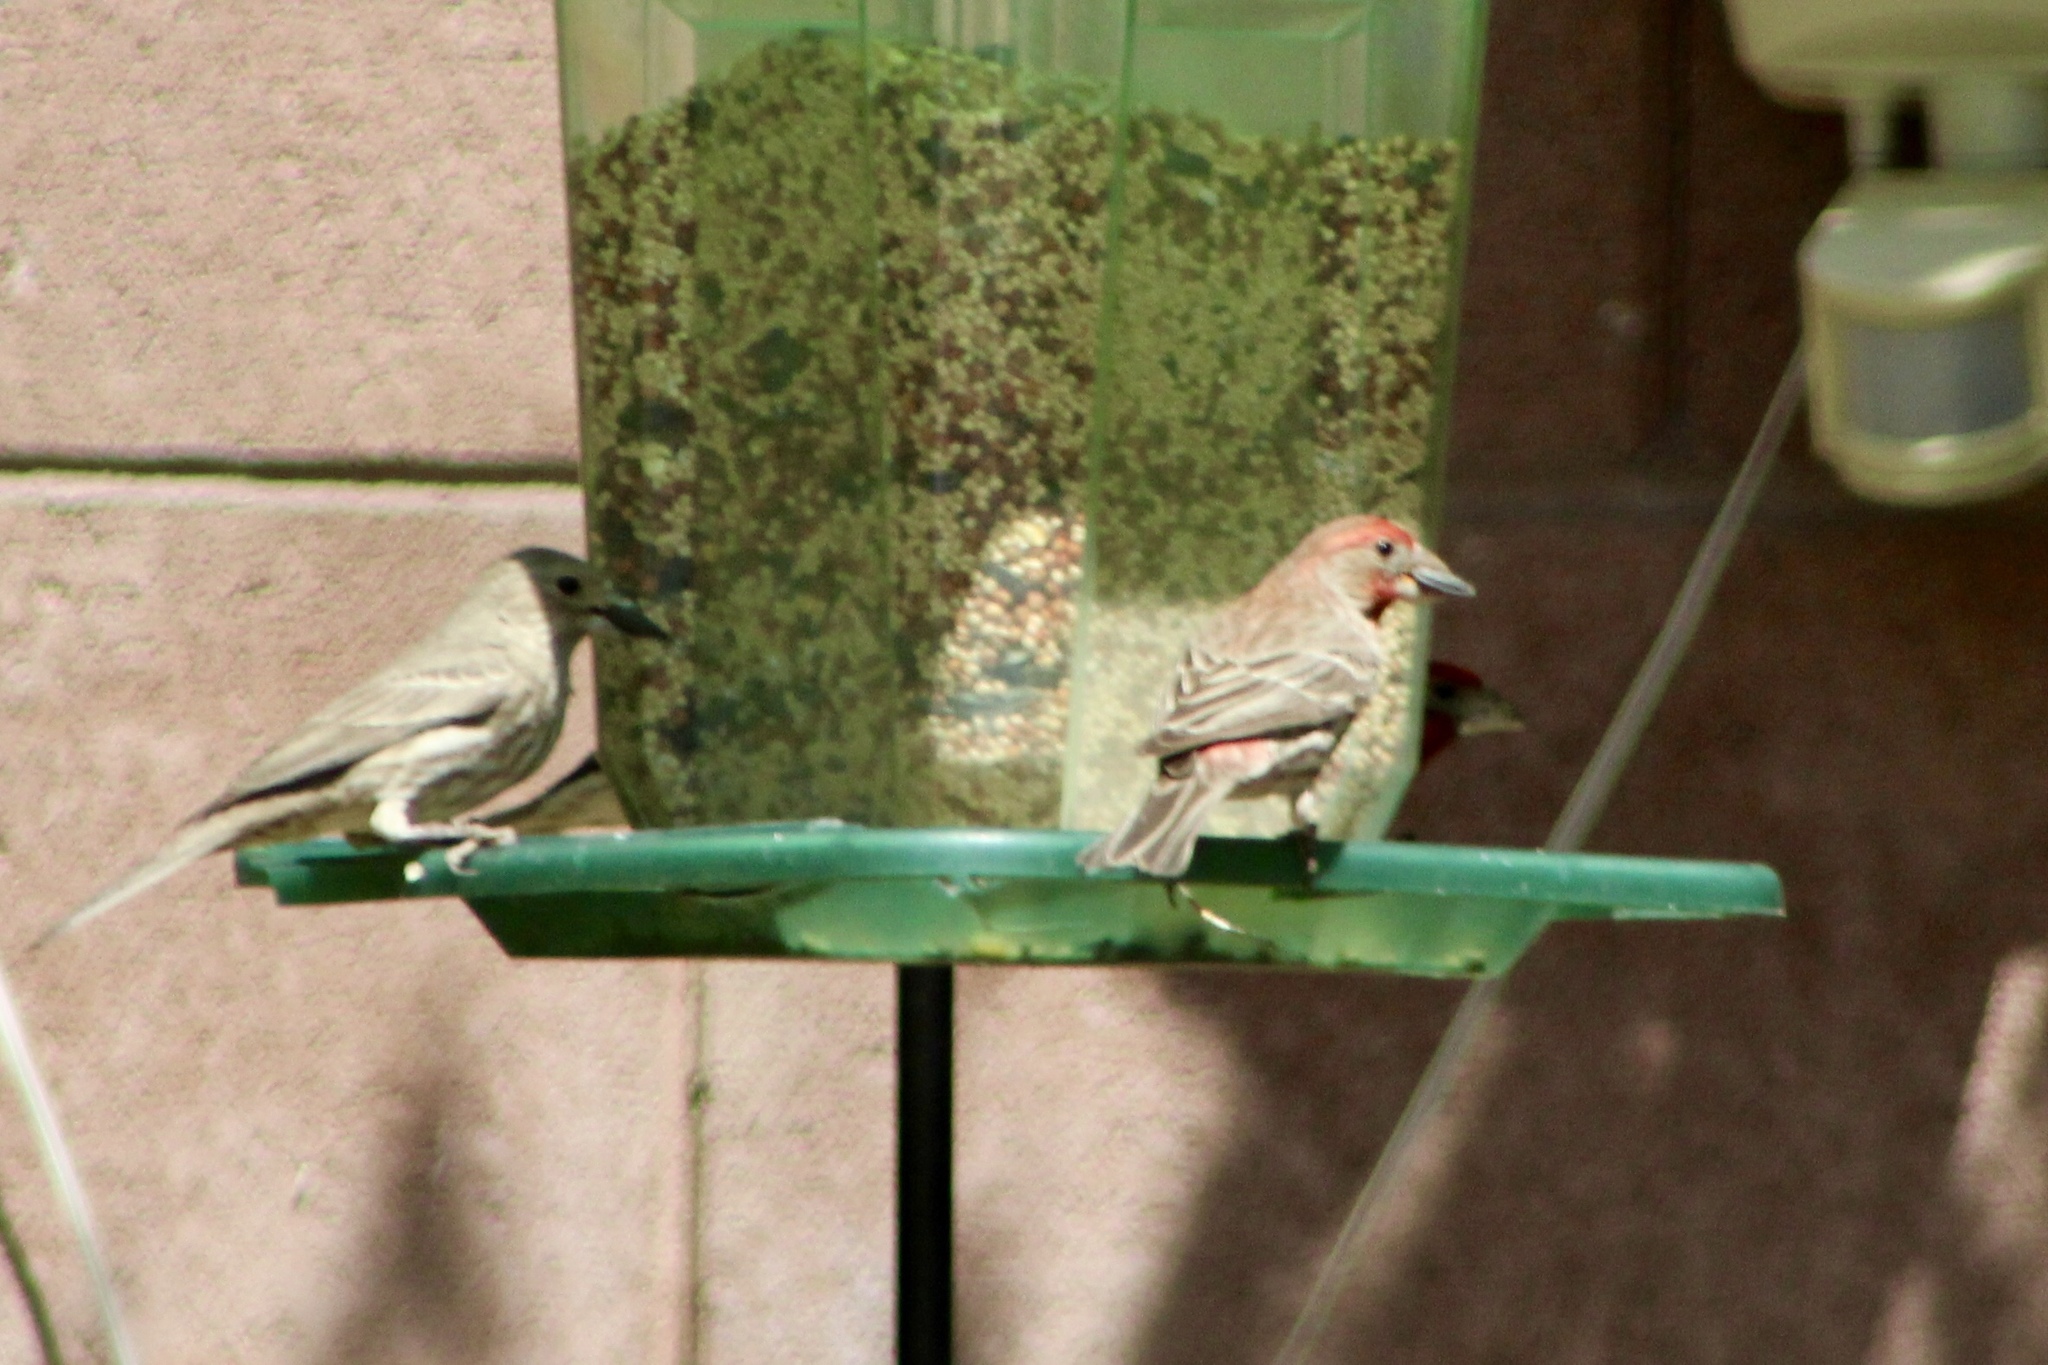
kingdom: Animalia
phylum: Chordata
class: Aves
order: Passeriformes
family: Fringillidae
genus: Haemorhous
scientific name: Haemorhous mexicanus
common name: House finch
